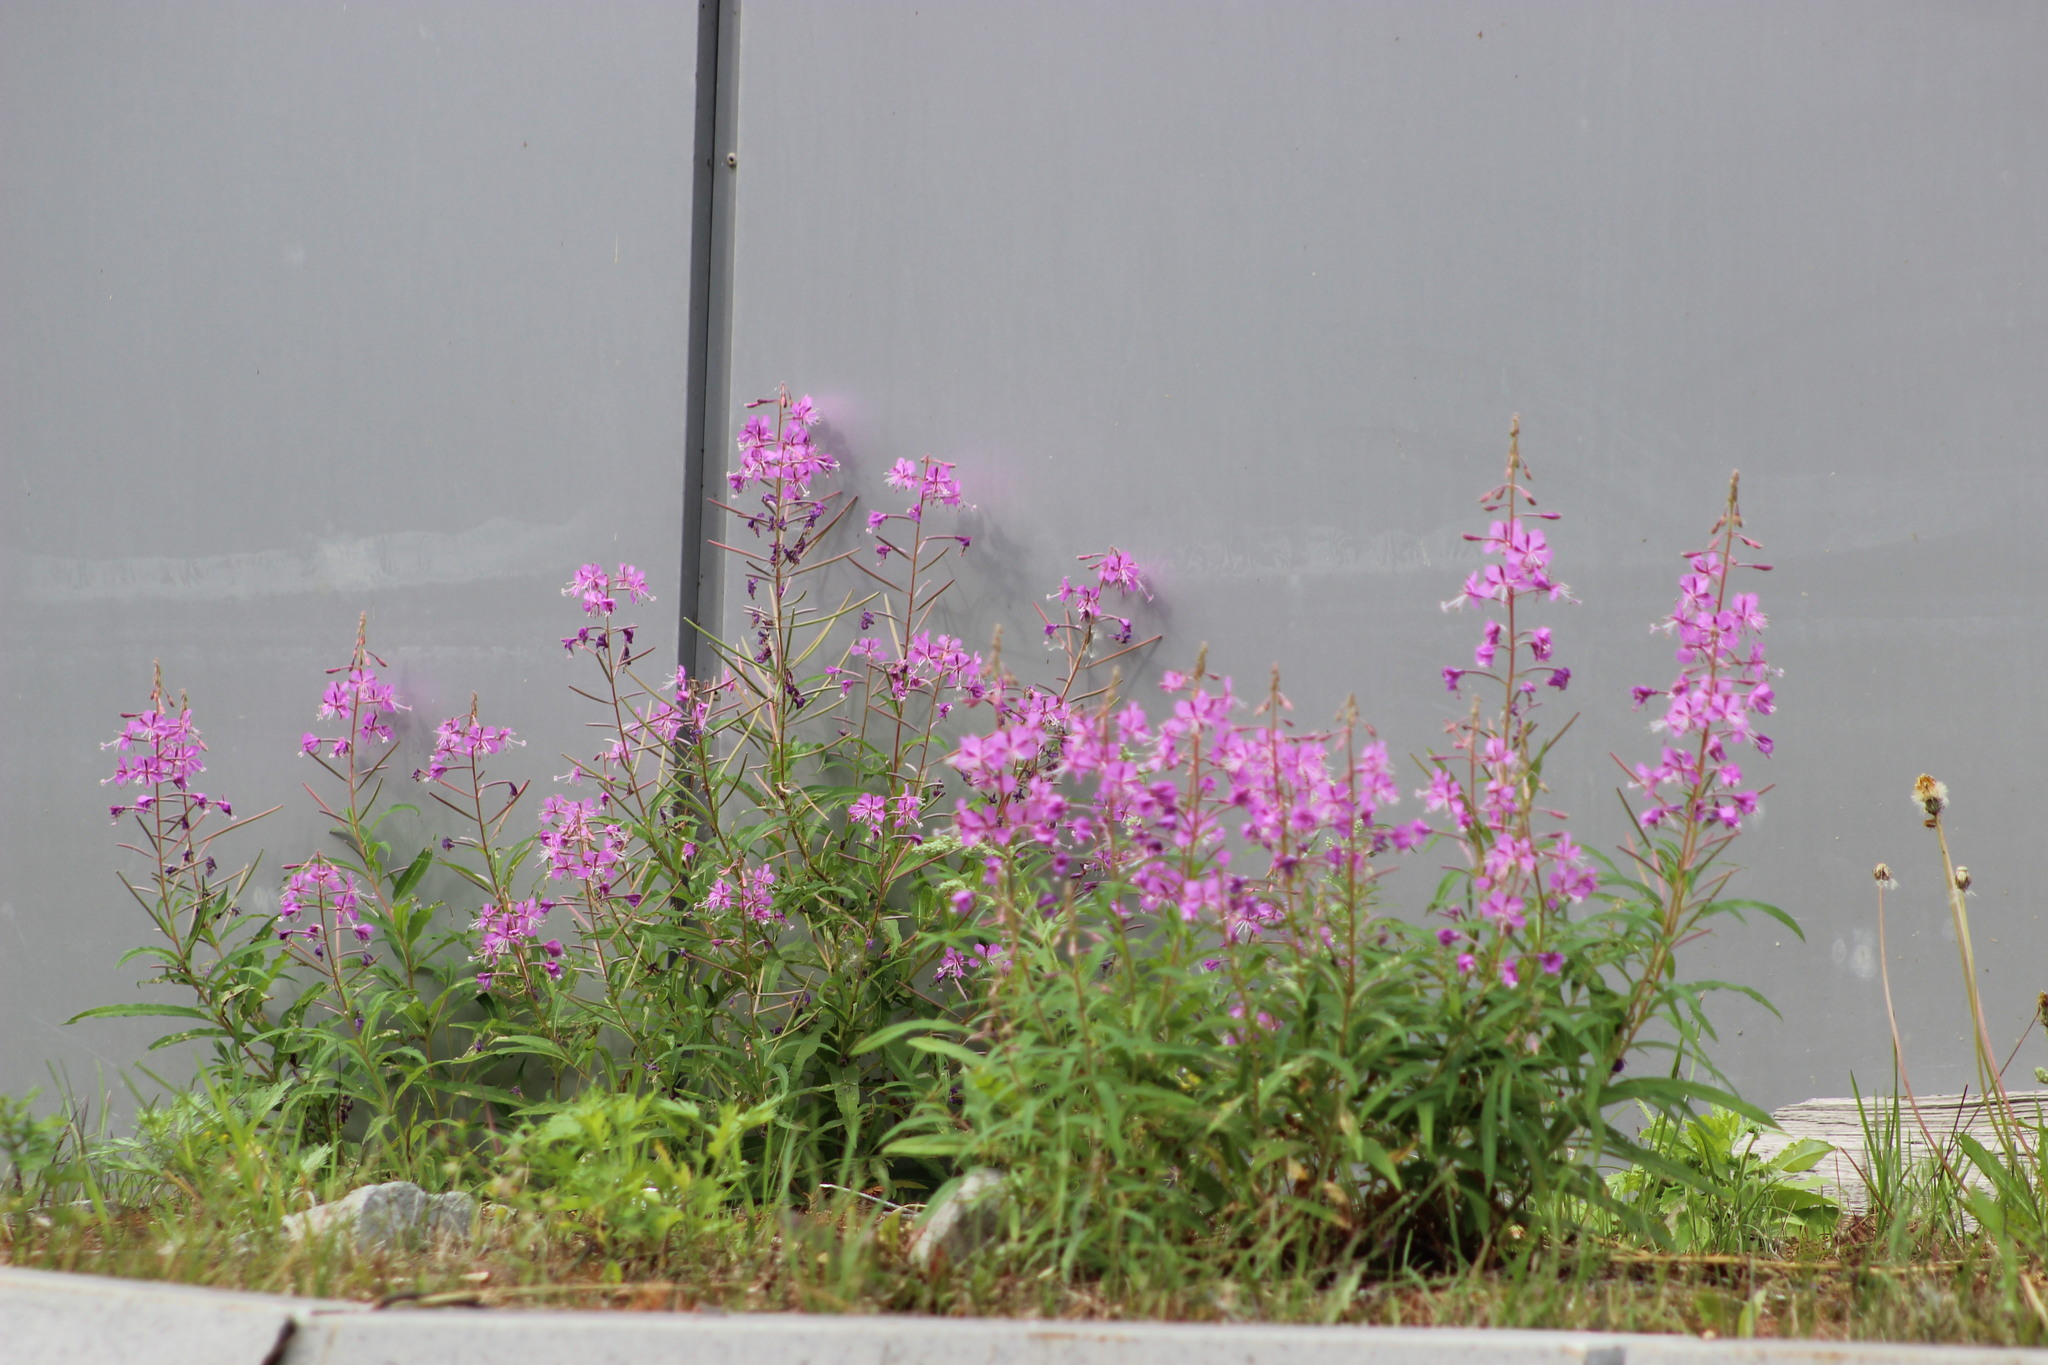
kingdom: Plantae
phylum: Tracheophyta
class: Magnoliopsida
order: Myrtales
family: Onagraceae
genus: Chamaenerion
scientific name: Chamaenerion angustifolium
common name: Fireweed
